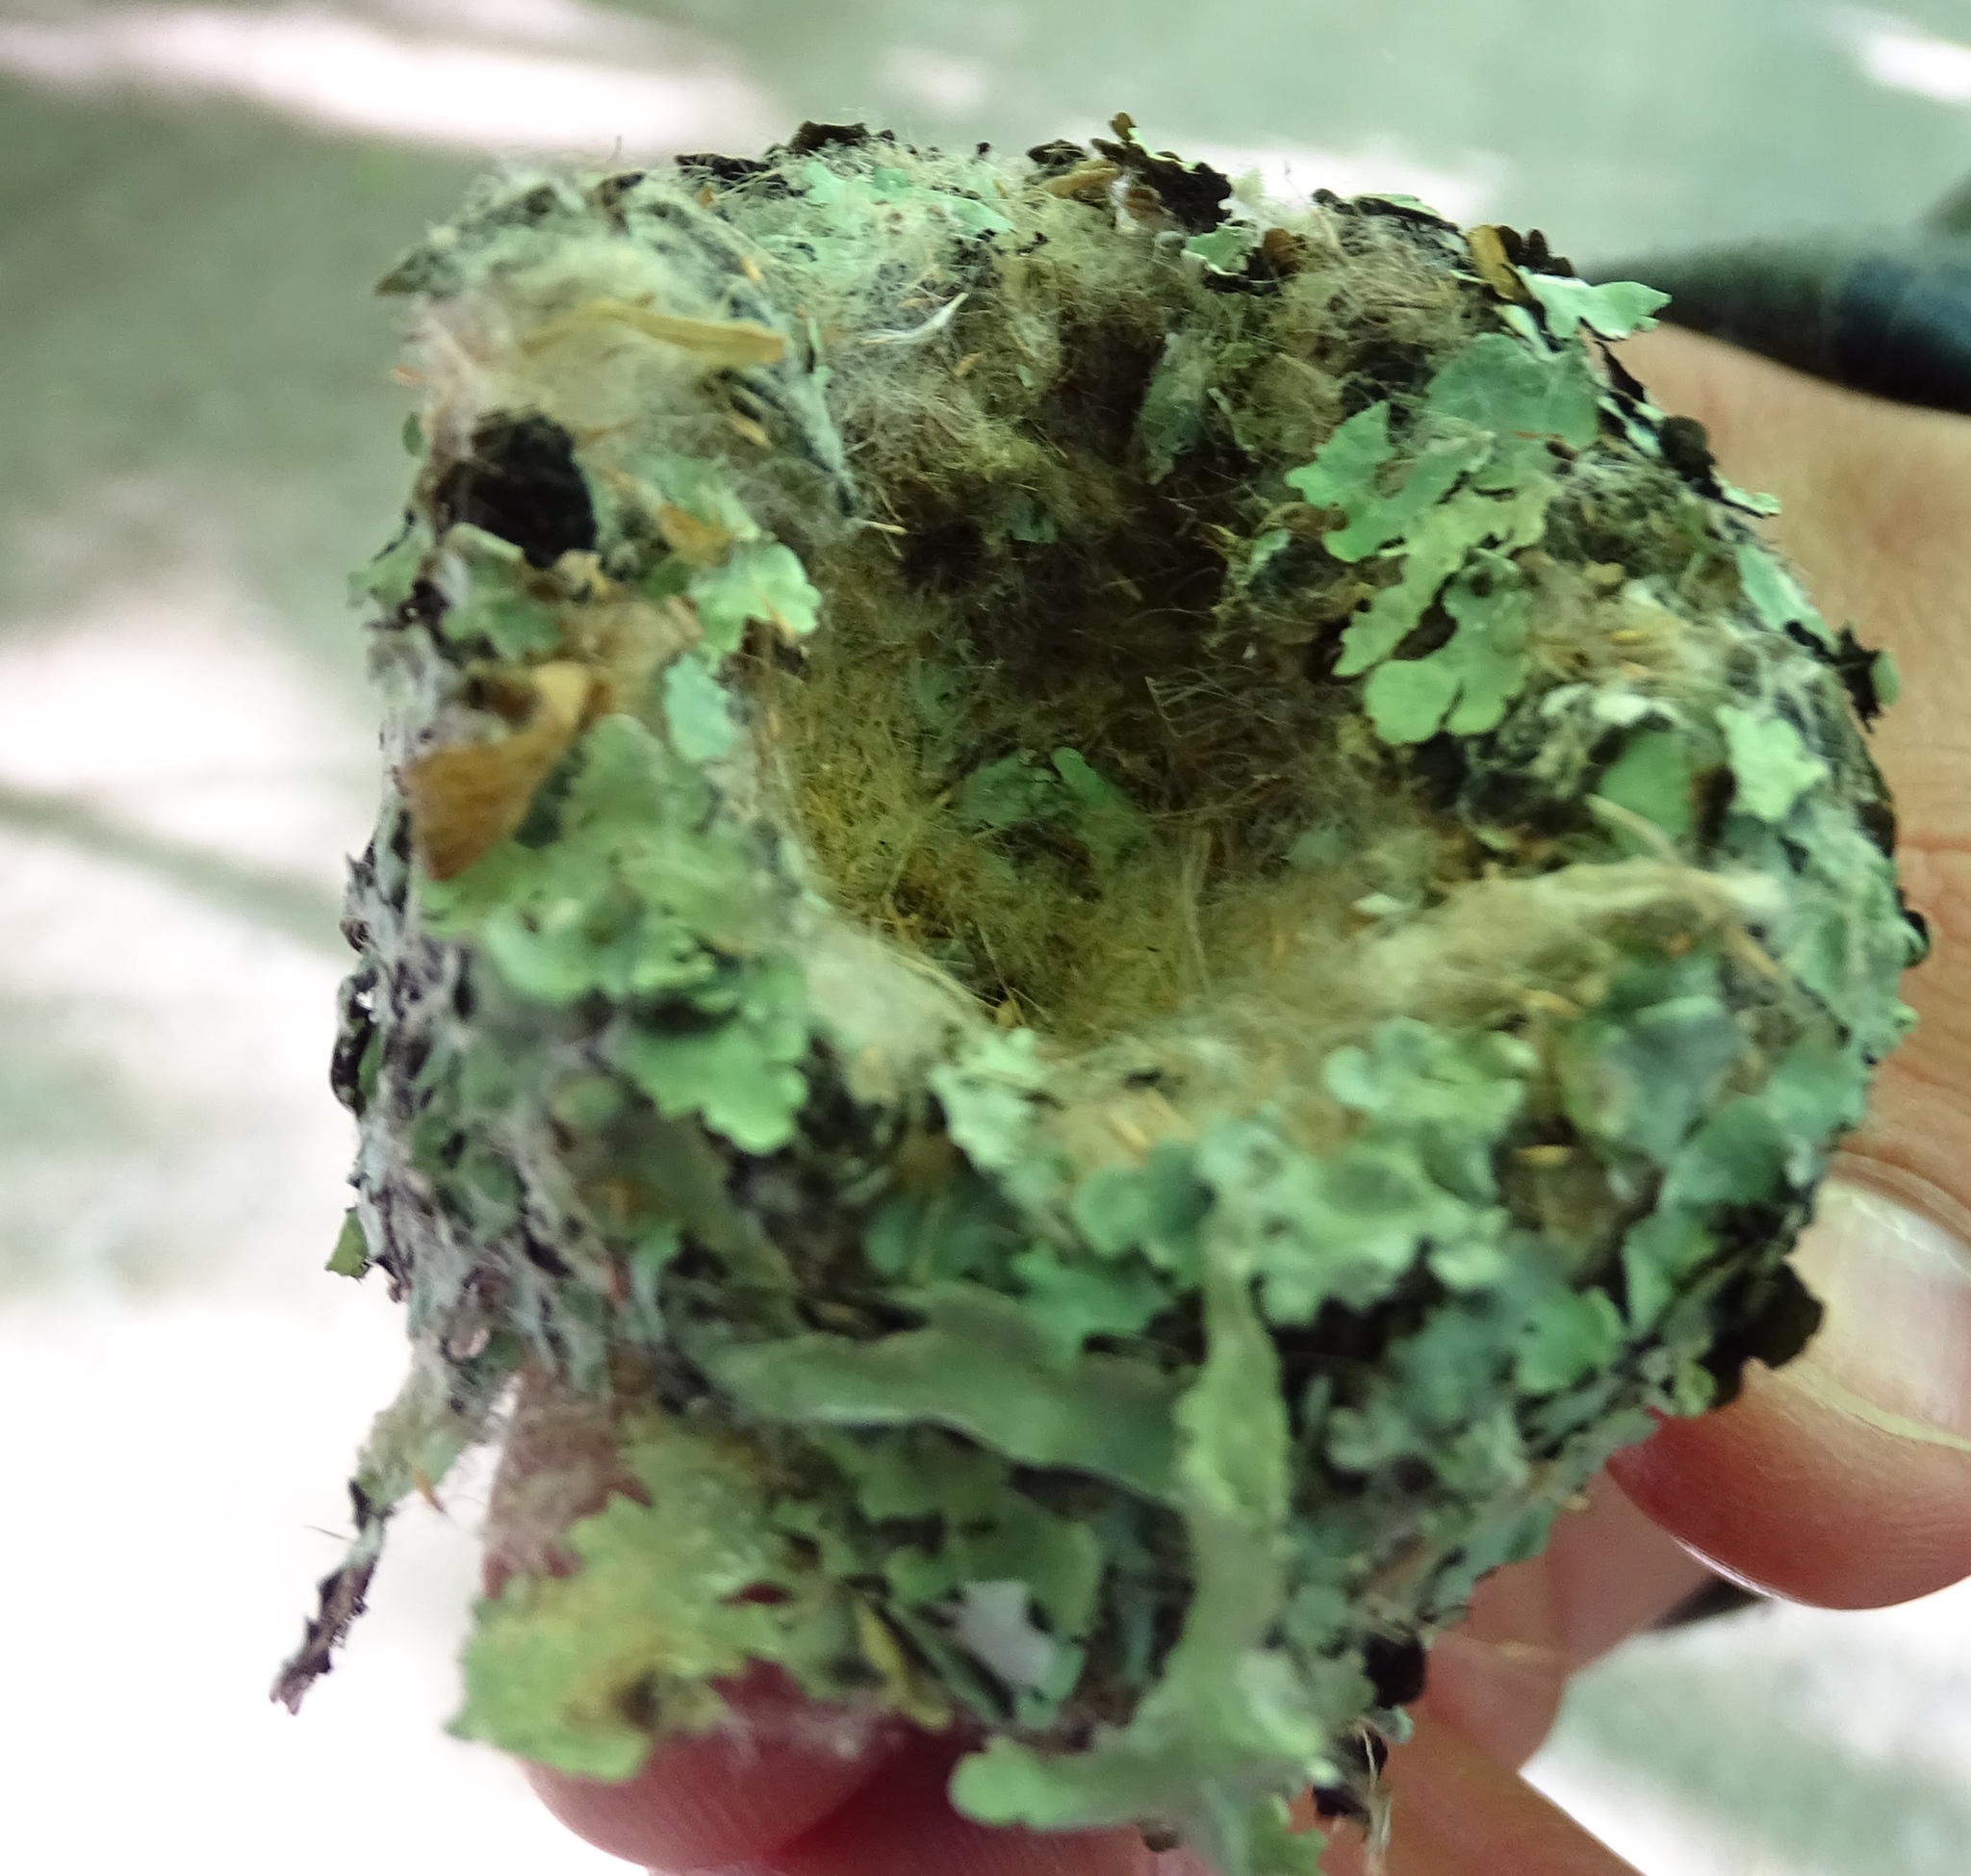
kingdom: Animalia
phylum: Chordata
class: Aves
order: Apodiformes
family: Trochilidae
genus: Archilochus
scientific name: Archilochus colubris
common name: Ruby-throated hummingbird
